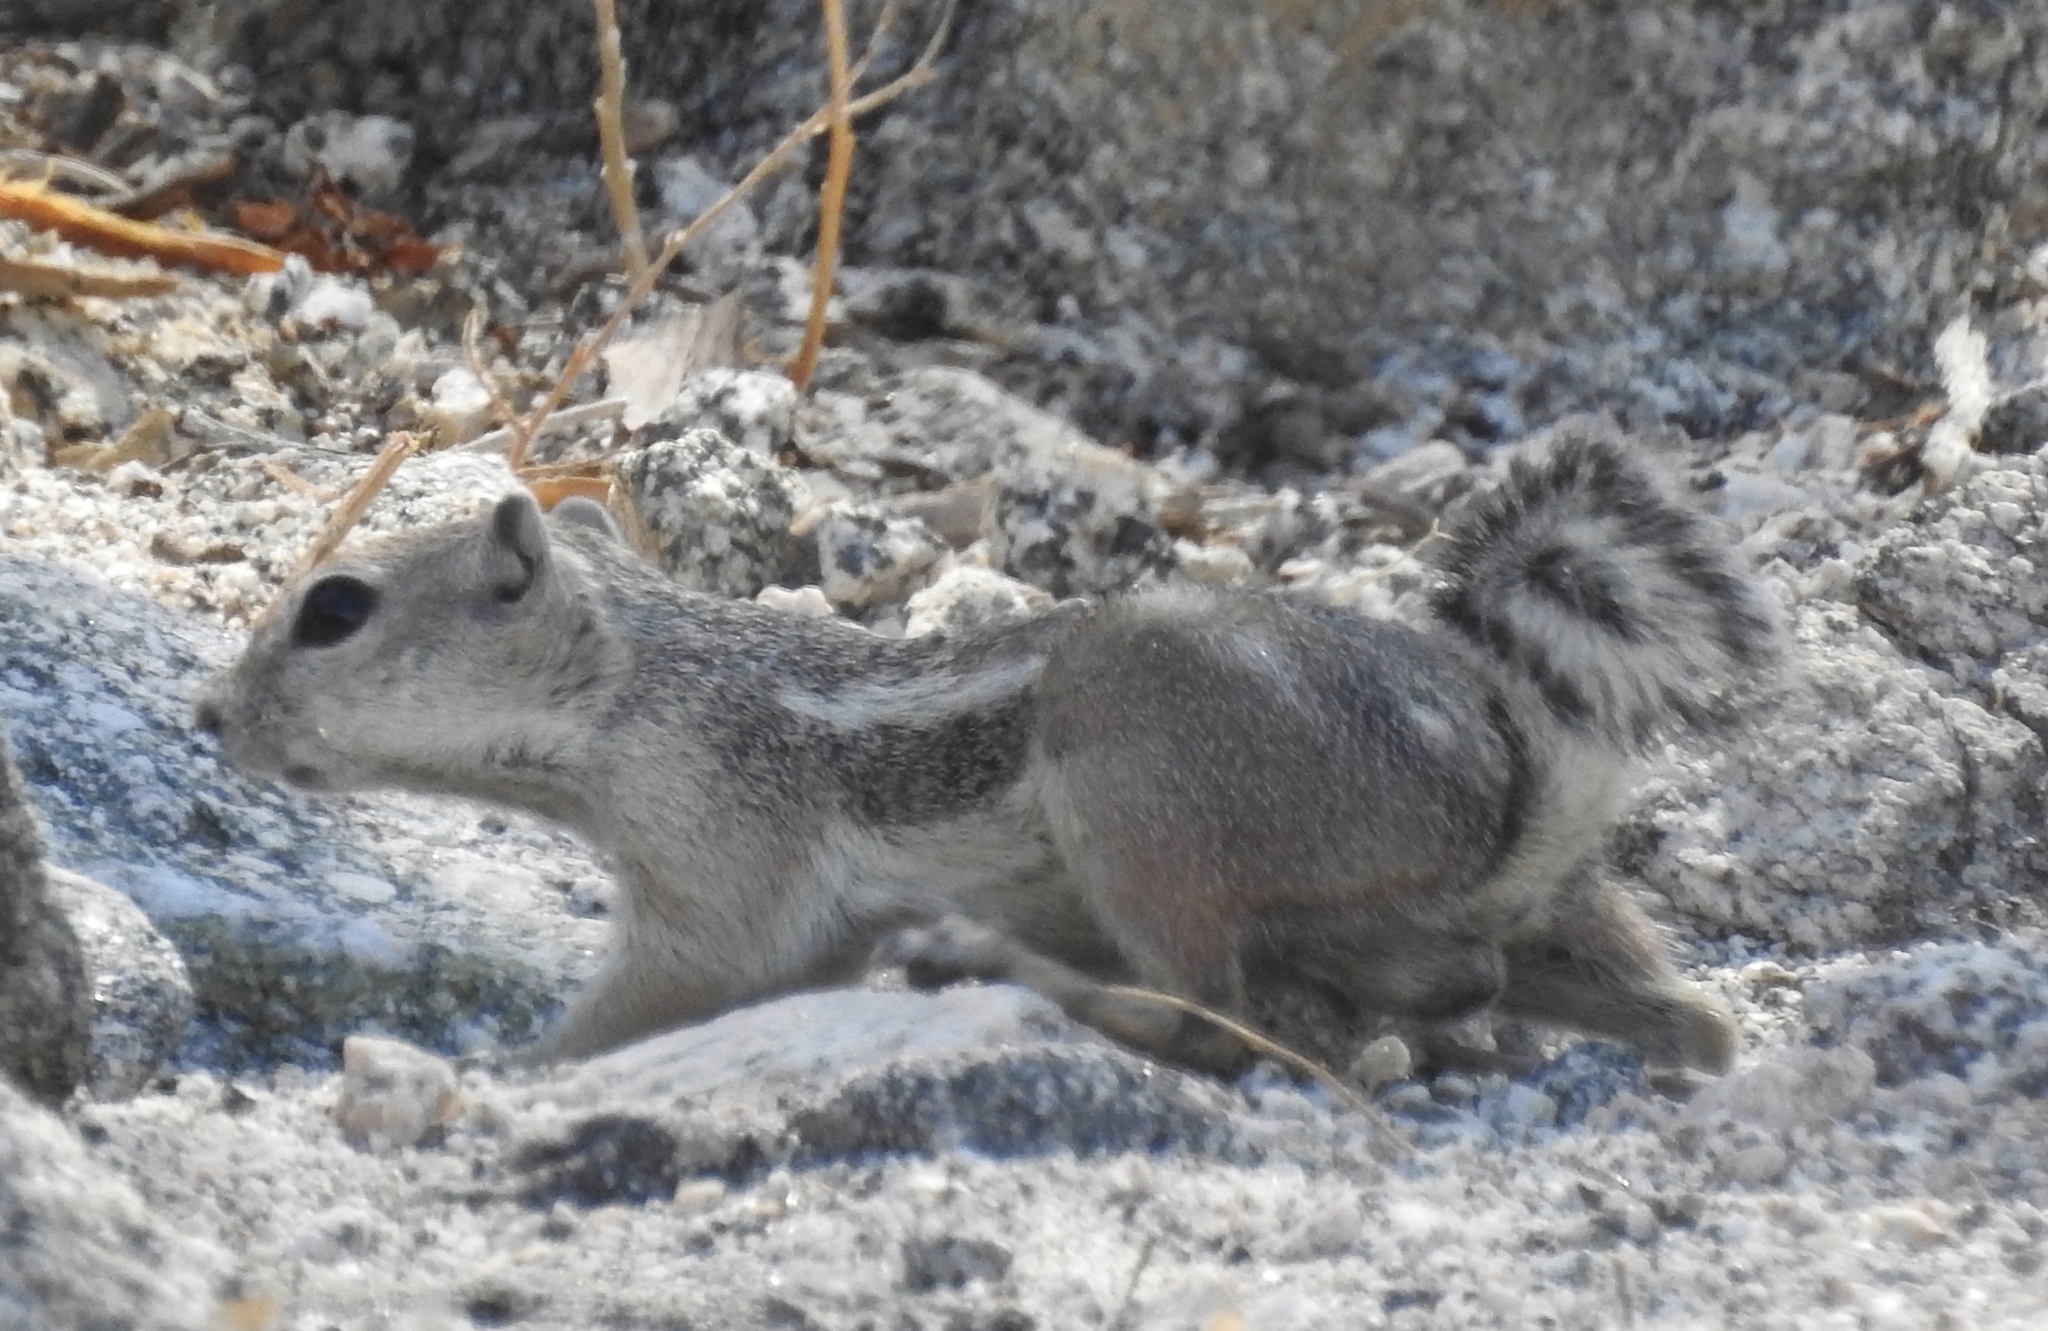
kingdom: Animalia
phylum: Chordata
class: Mammalia
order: Rodentia
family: Sciuridae
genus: Ammospermophilus
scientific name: Ammospermophilus leucurus
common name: White-tailed antelope squirrel
